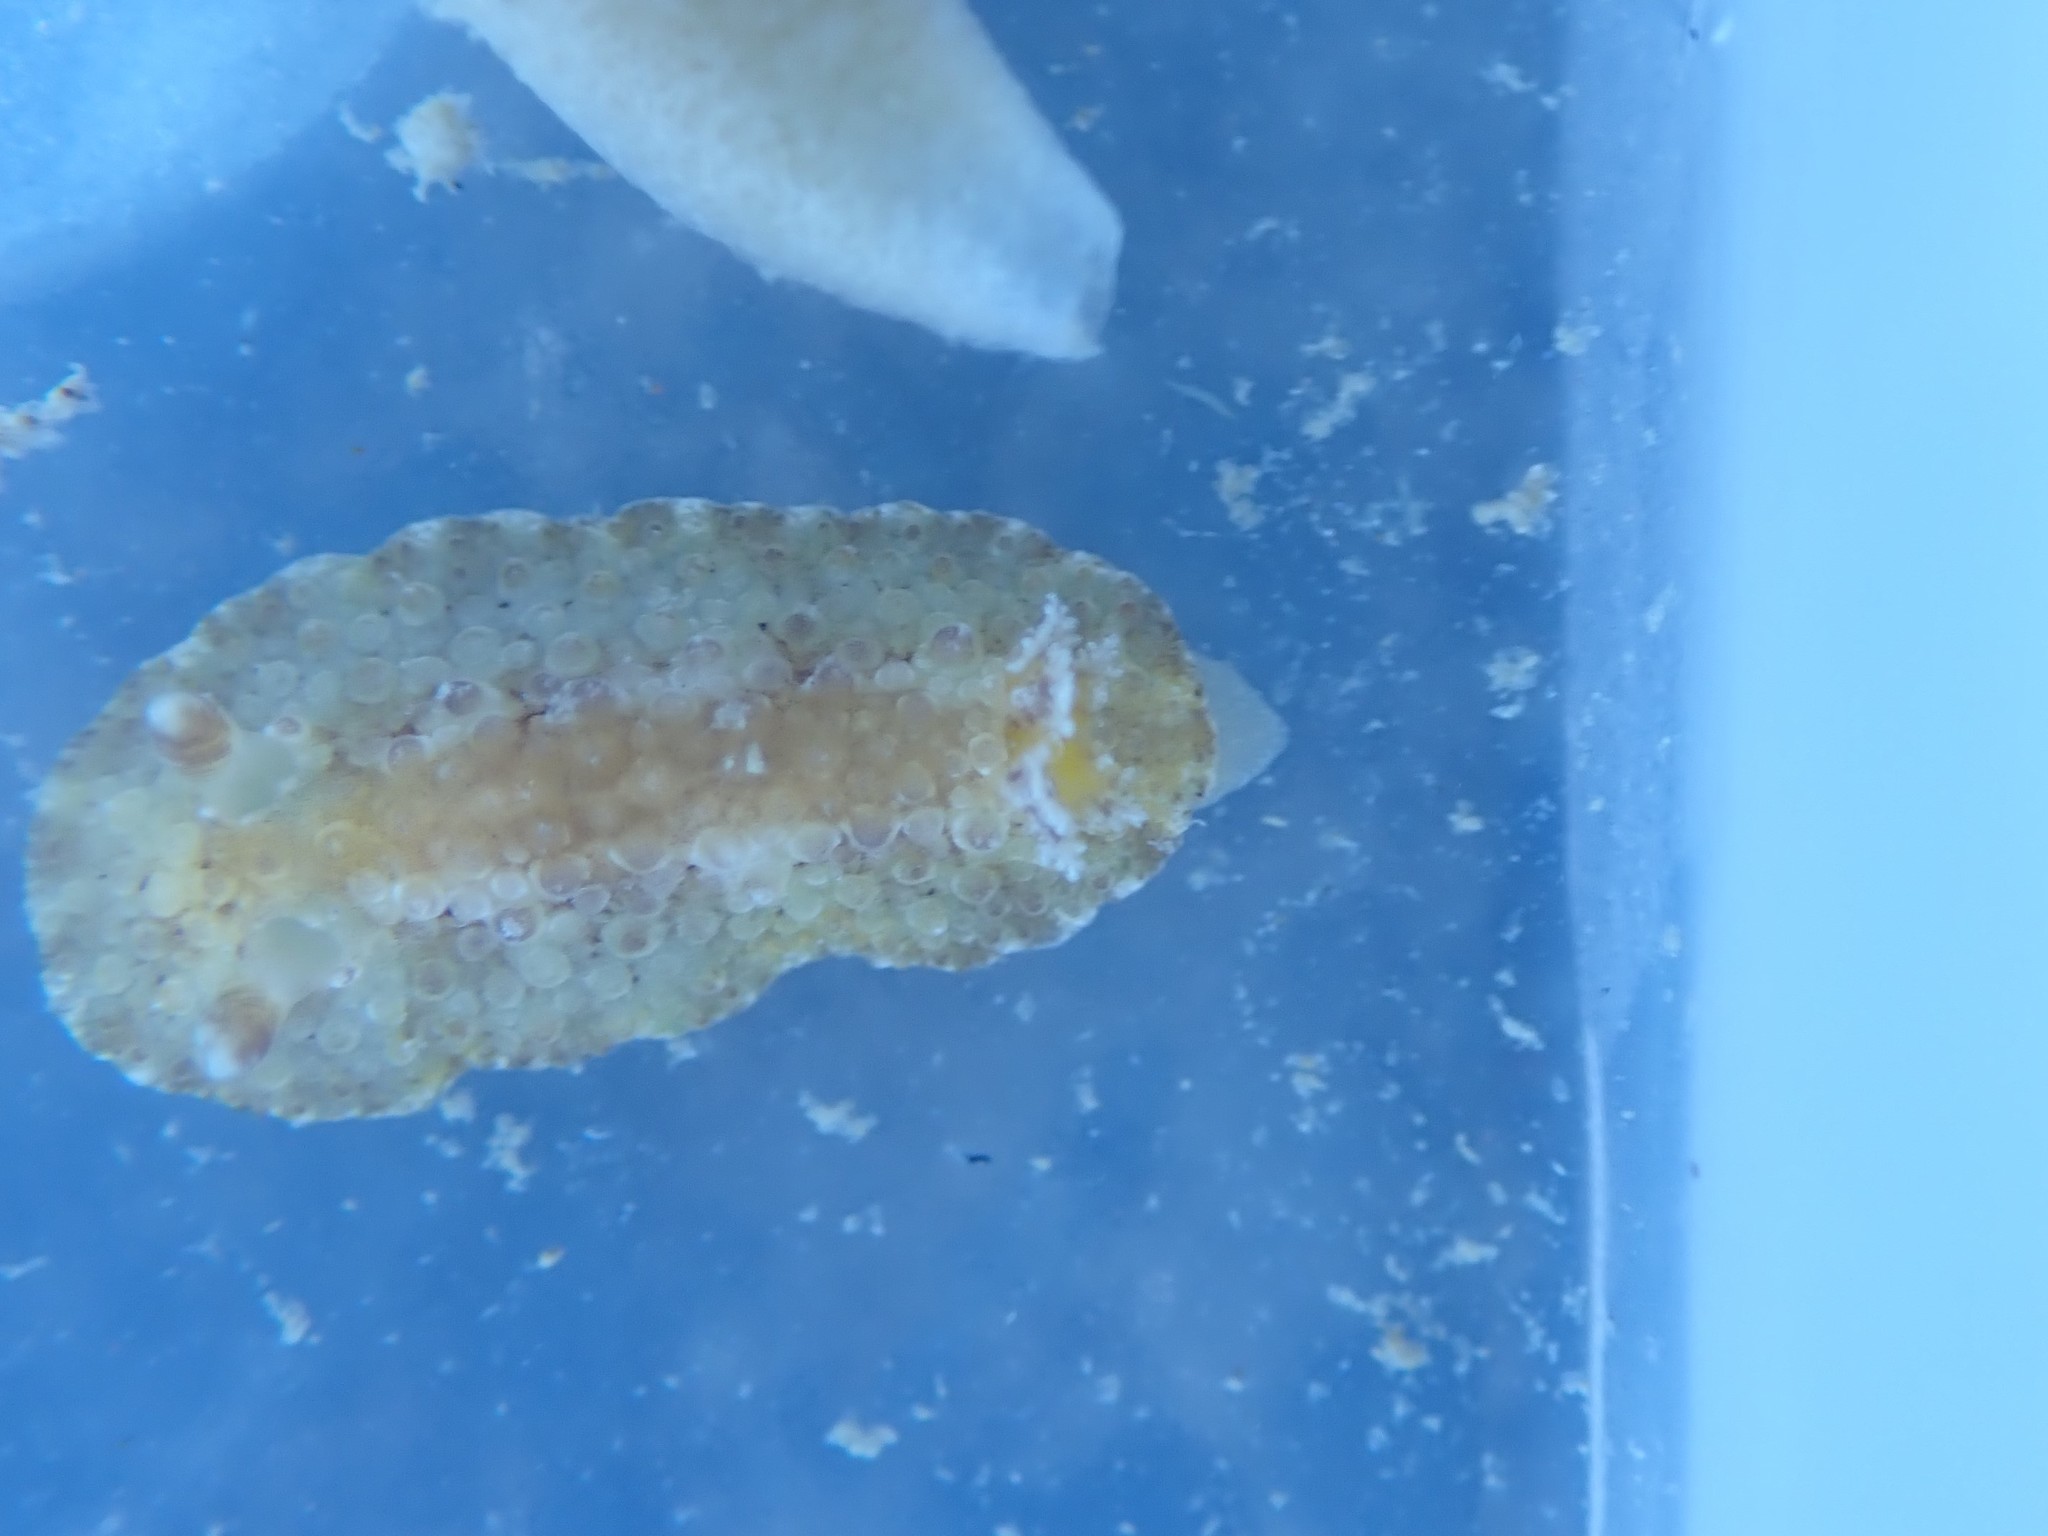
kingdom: Animalia
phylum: Mollusca
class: Gastropoda
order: Nudibranchia
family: Discodorididae
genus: Carminodoris
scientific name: Carminodoris nodulosa
